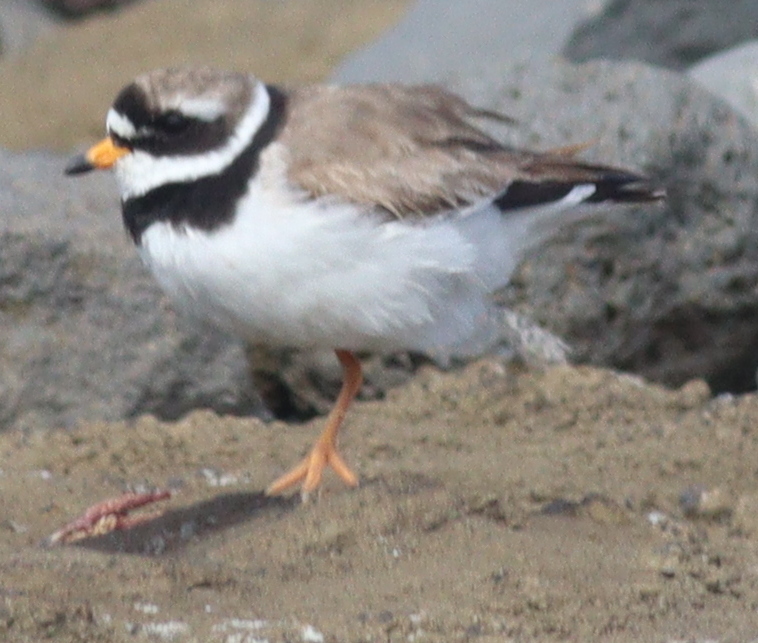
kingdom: Animalia
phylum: Chordata
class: Aves
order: Charadriiformes
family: Charadriidae
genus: Charadrius
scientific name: Charadrius hiaticula
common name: Common ringed plover
